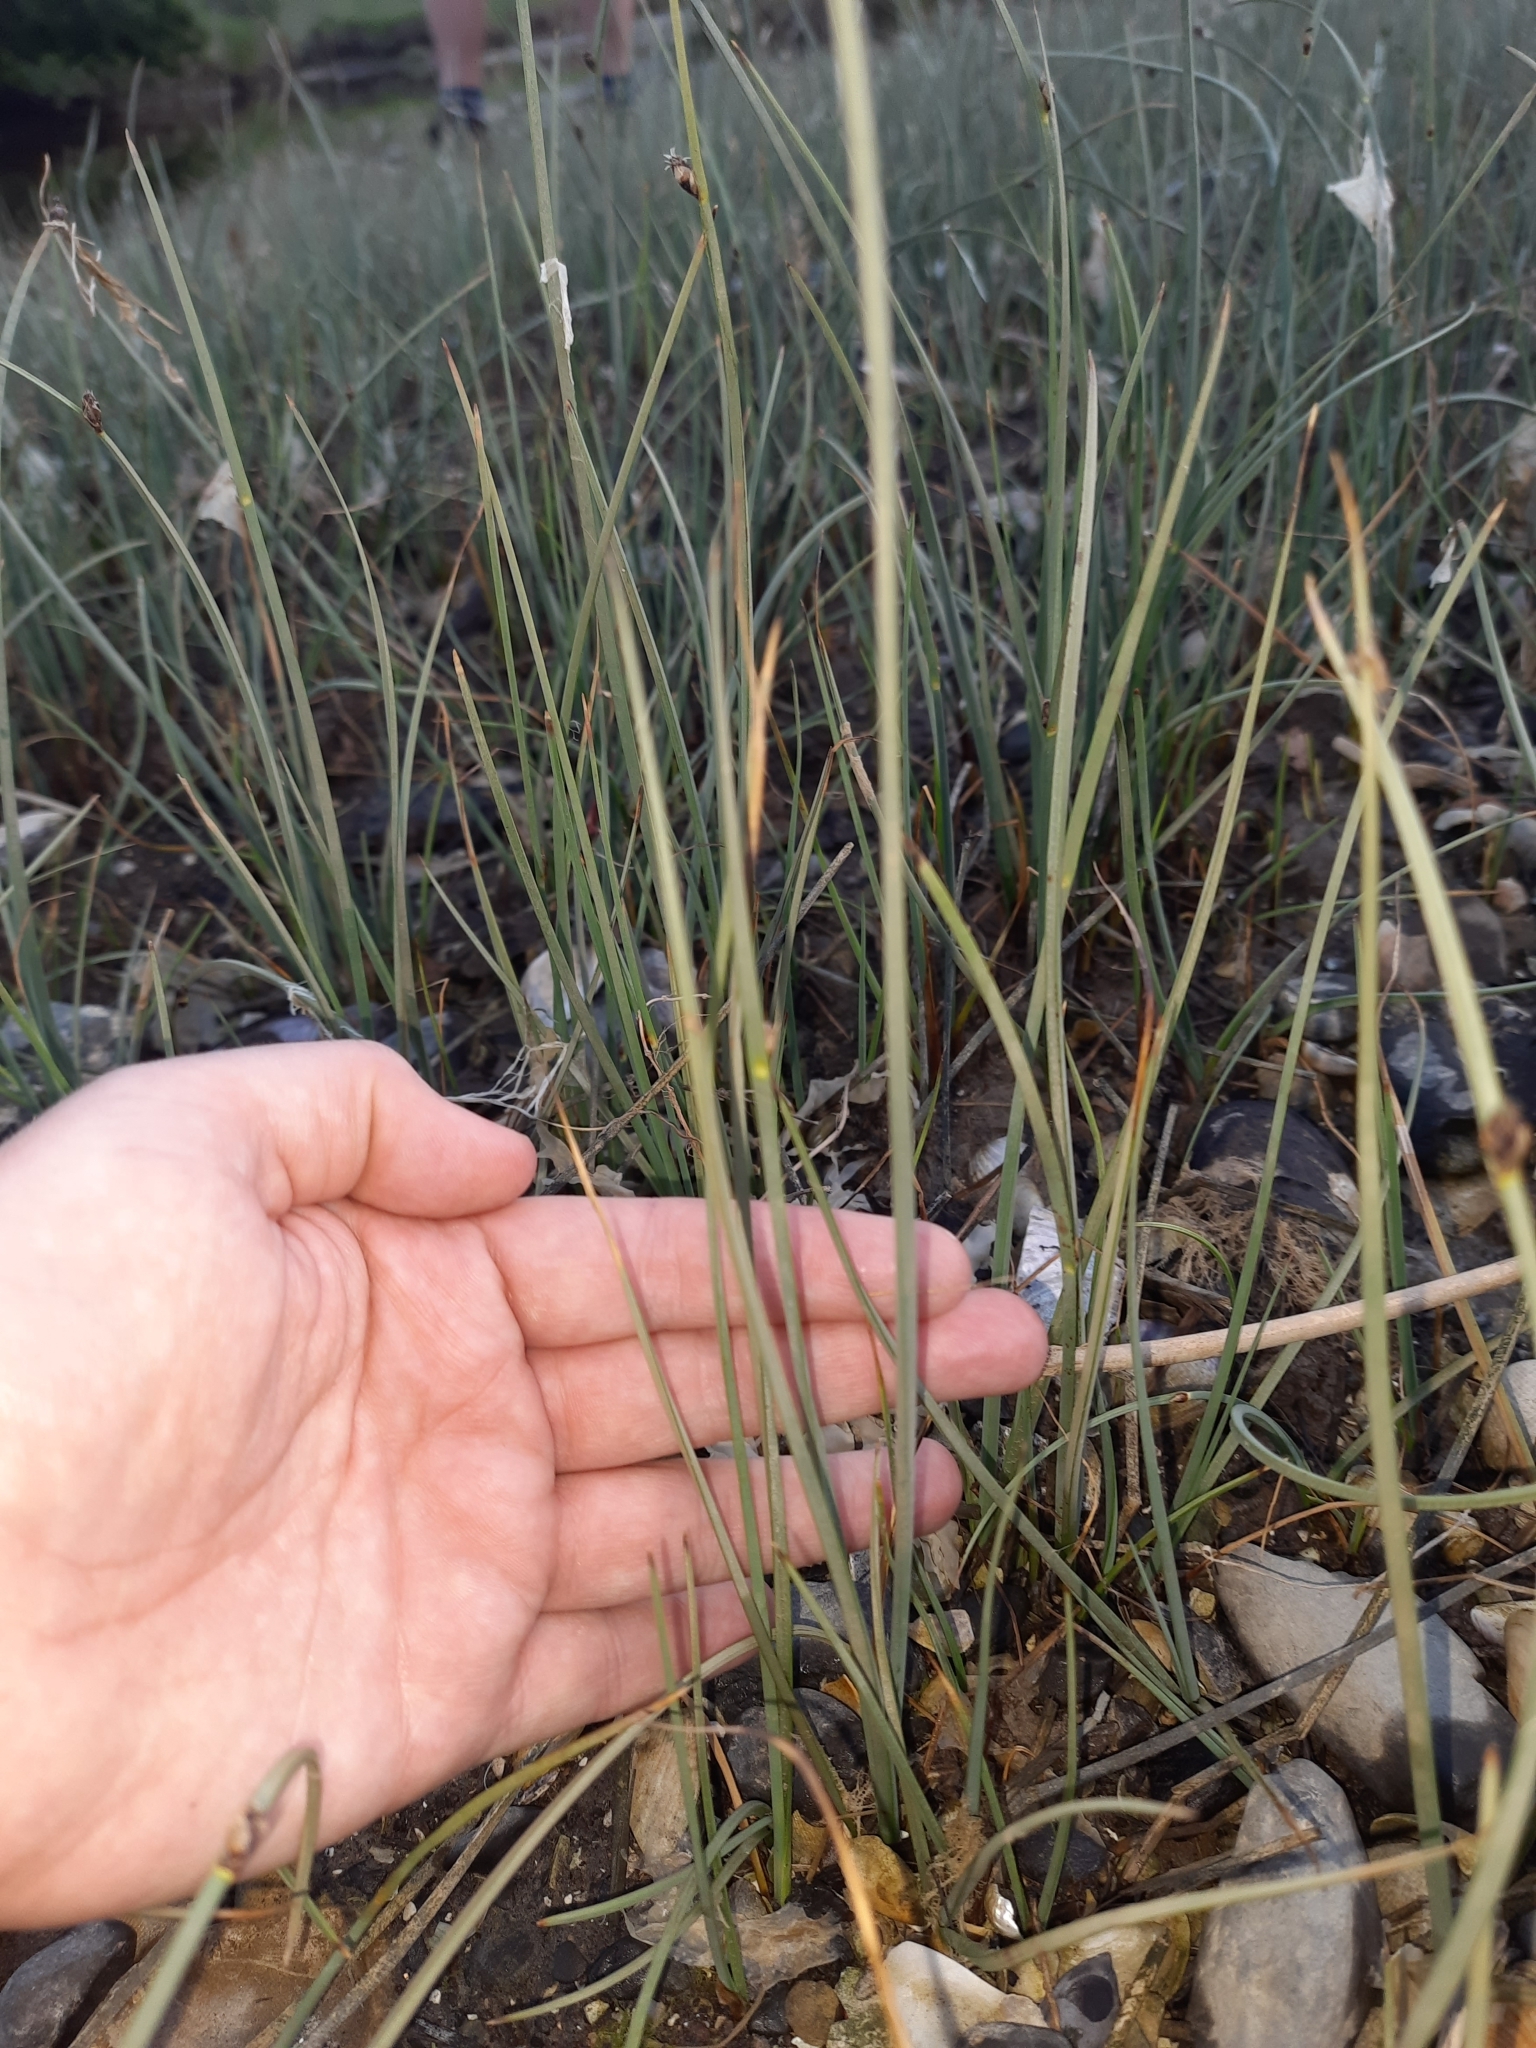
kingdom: Plantae
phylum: Tracheophyta
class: Liliopsida
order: Poales
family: Cyperaceae
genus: Schoenoplectus
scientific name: Schoenoplectus pungens
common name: Sharp club-rush
